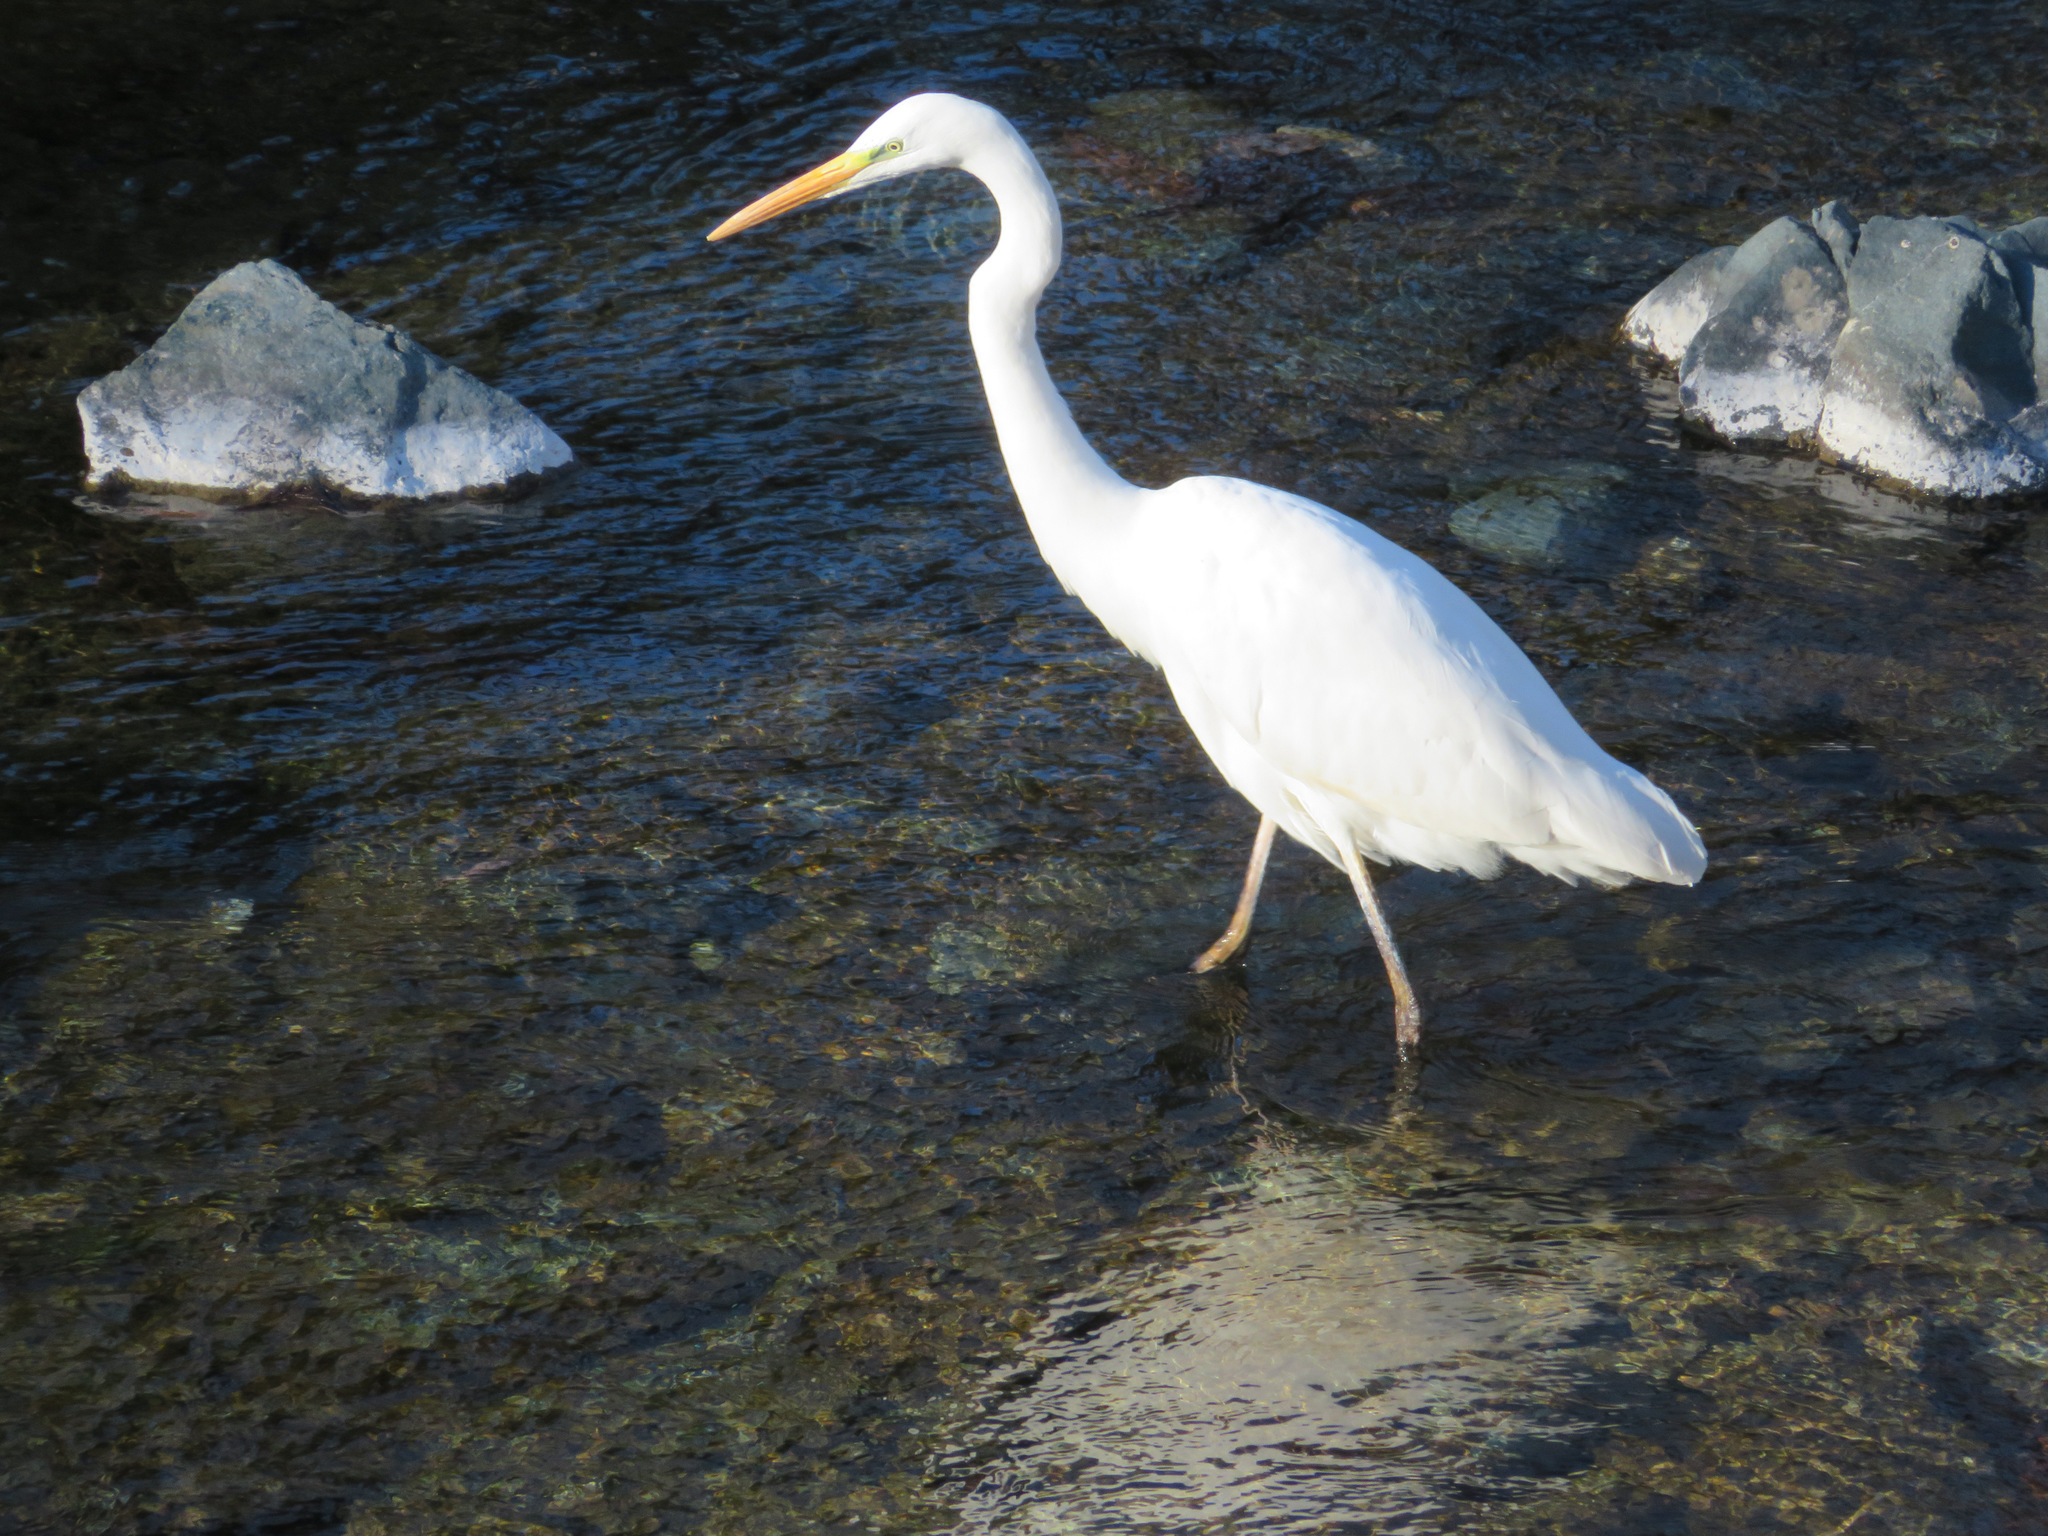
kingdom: Animalia
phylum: Chordata
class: Aves
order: Pelecaniformes
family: Ardeidae
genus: Ardea
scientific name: Ardea alba
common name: Great egret
